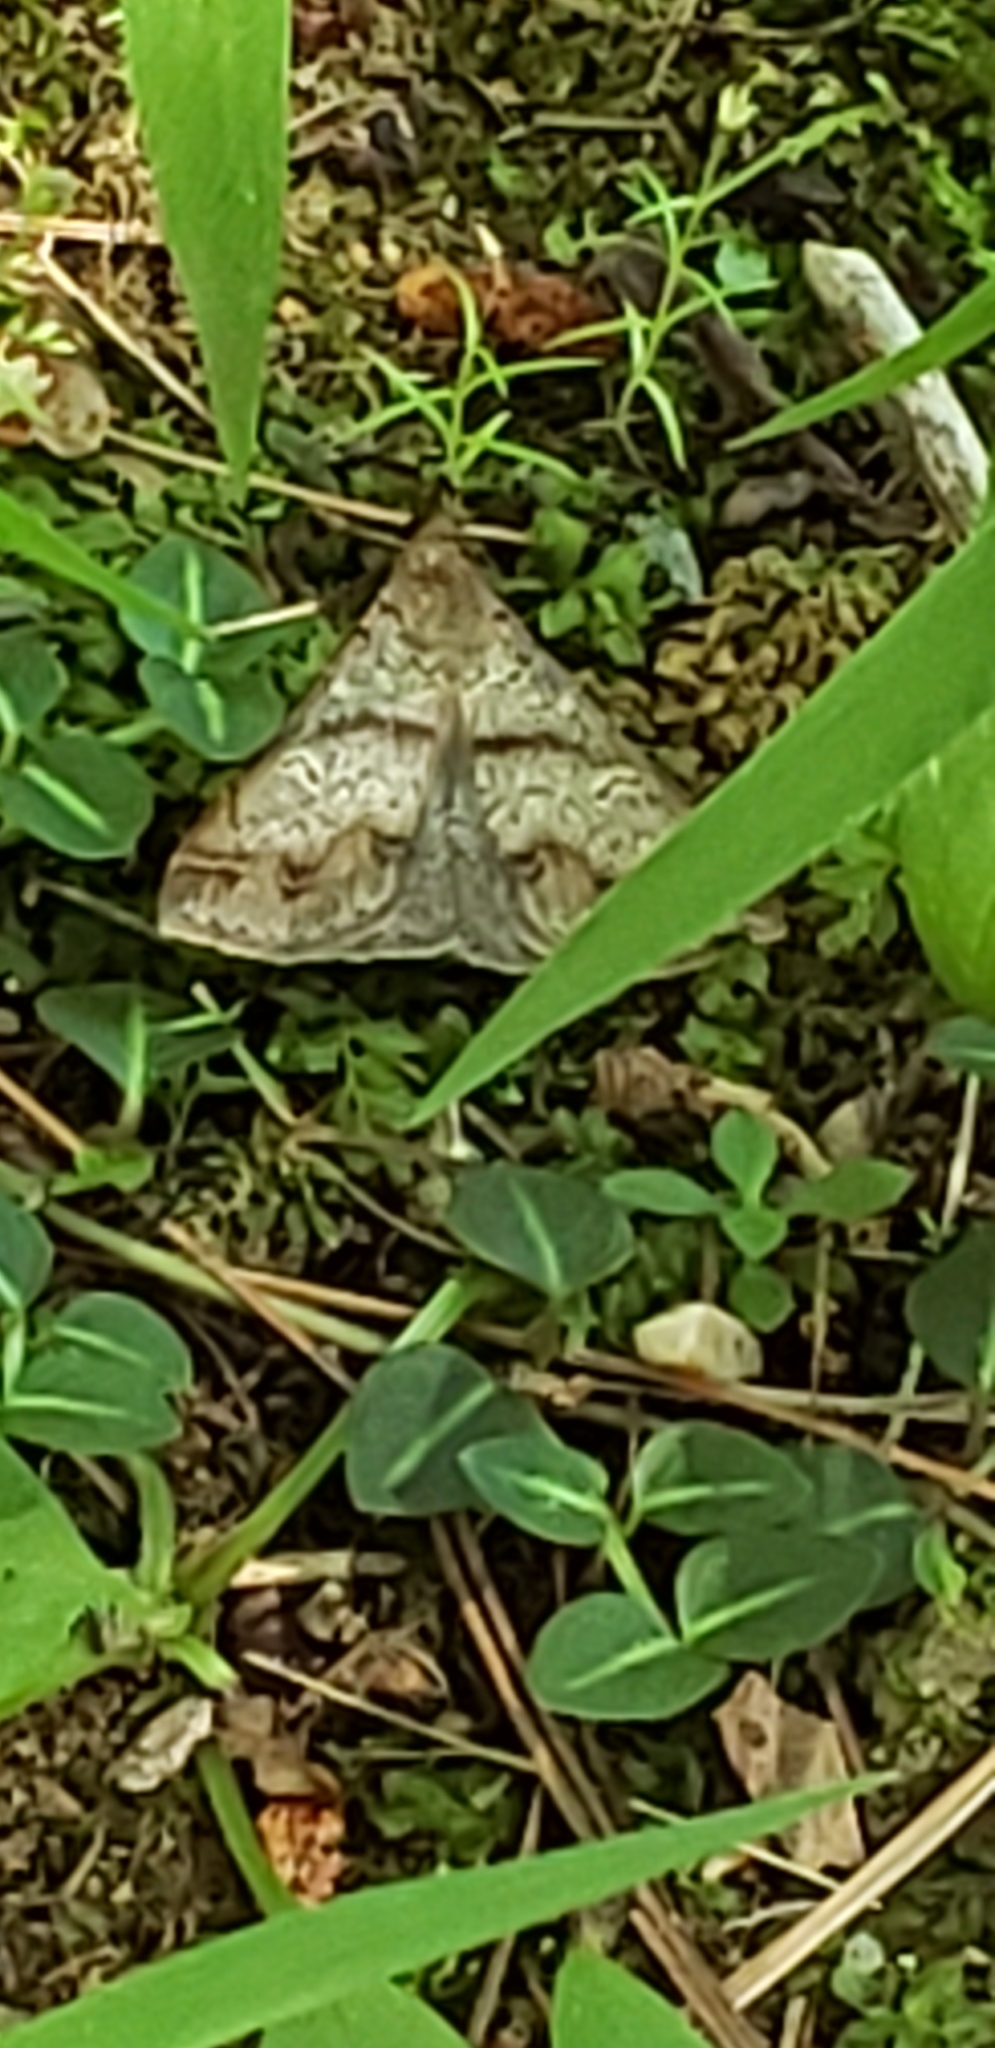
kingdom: Animalia
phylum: Arthropoda
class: Insecta
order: Lepidoptera
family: Erebidae
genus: Renia
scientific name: Renia discoloralis
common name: Discolored renia moth
